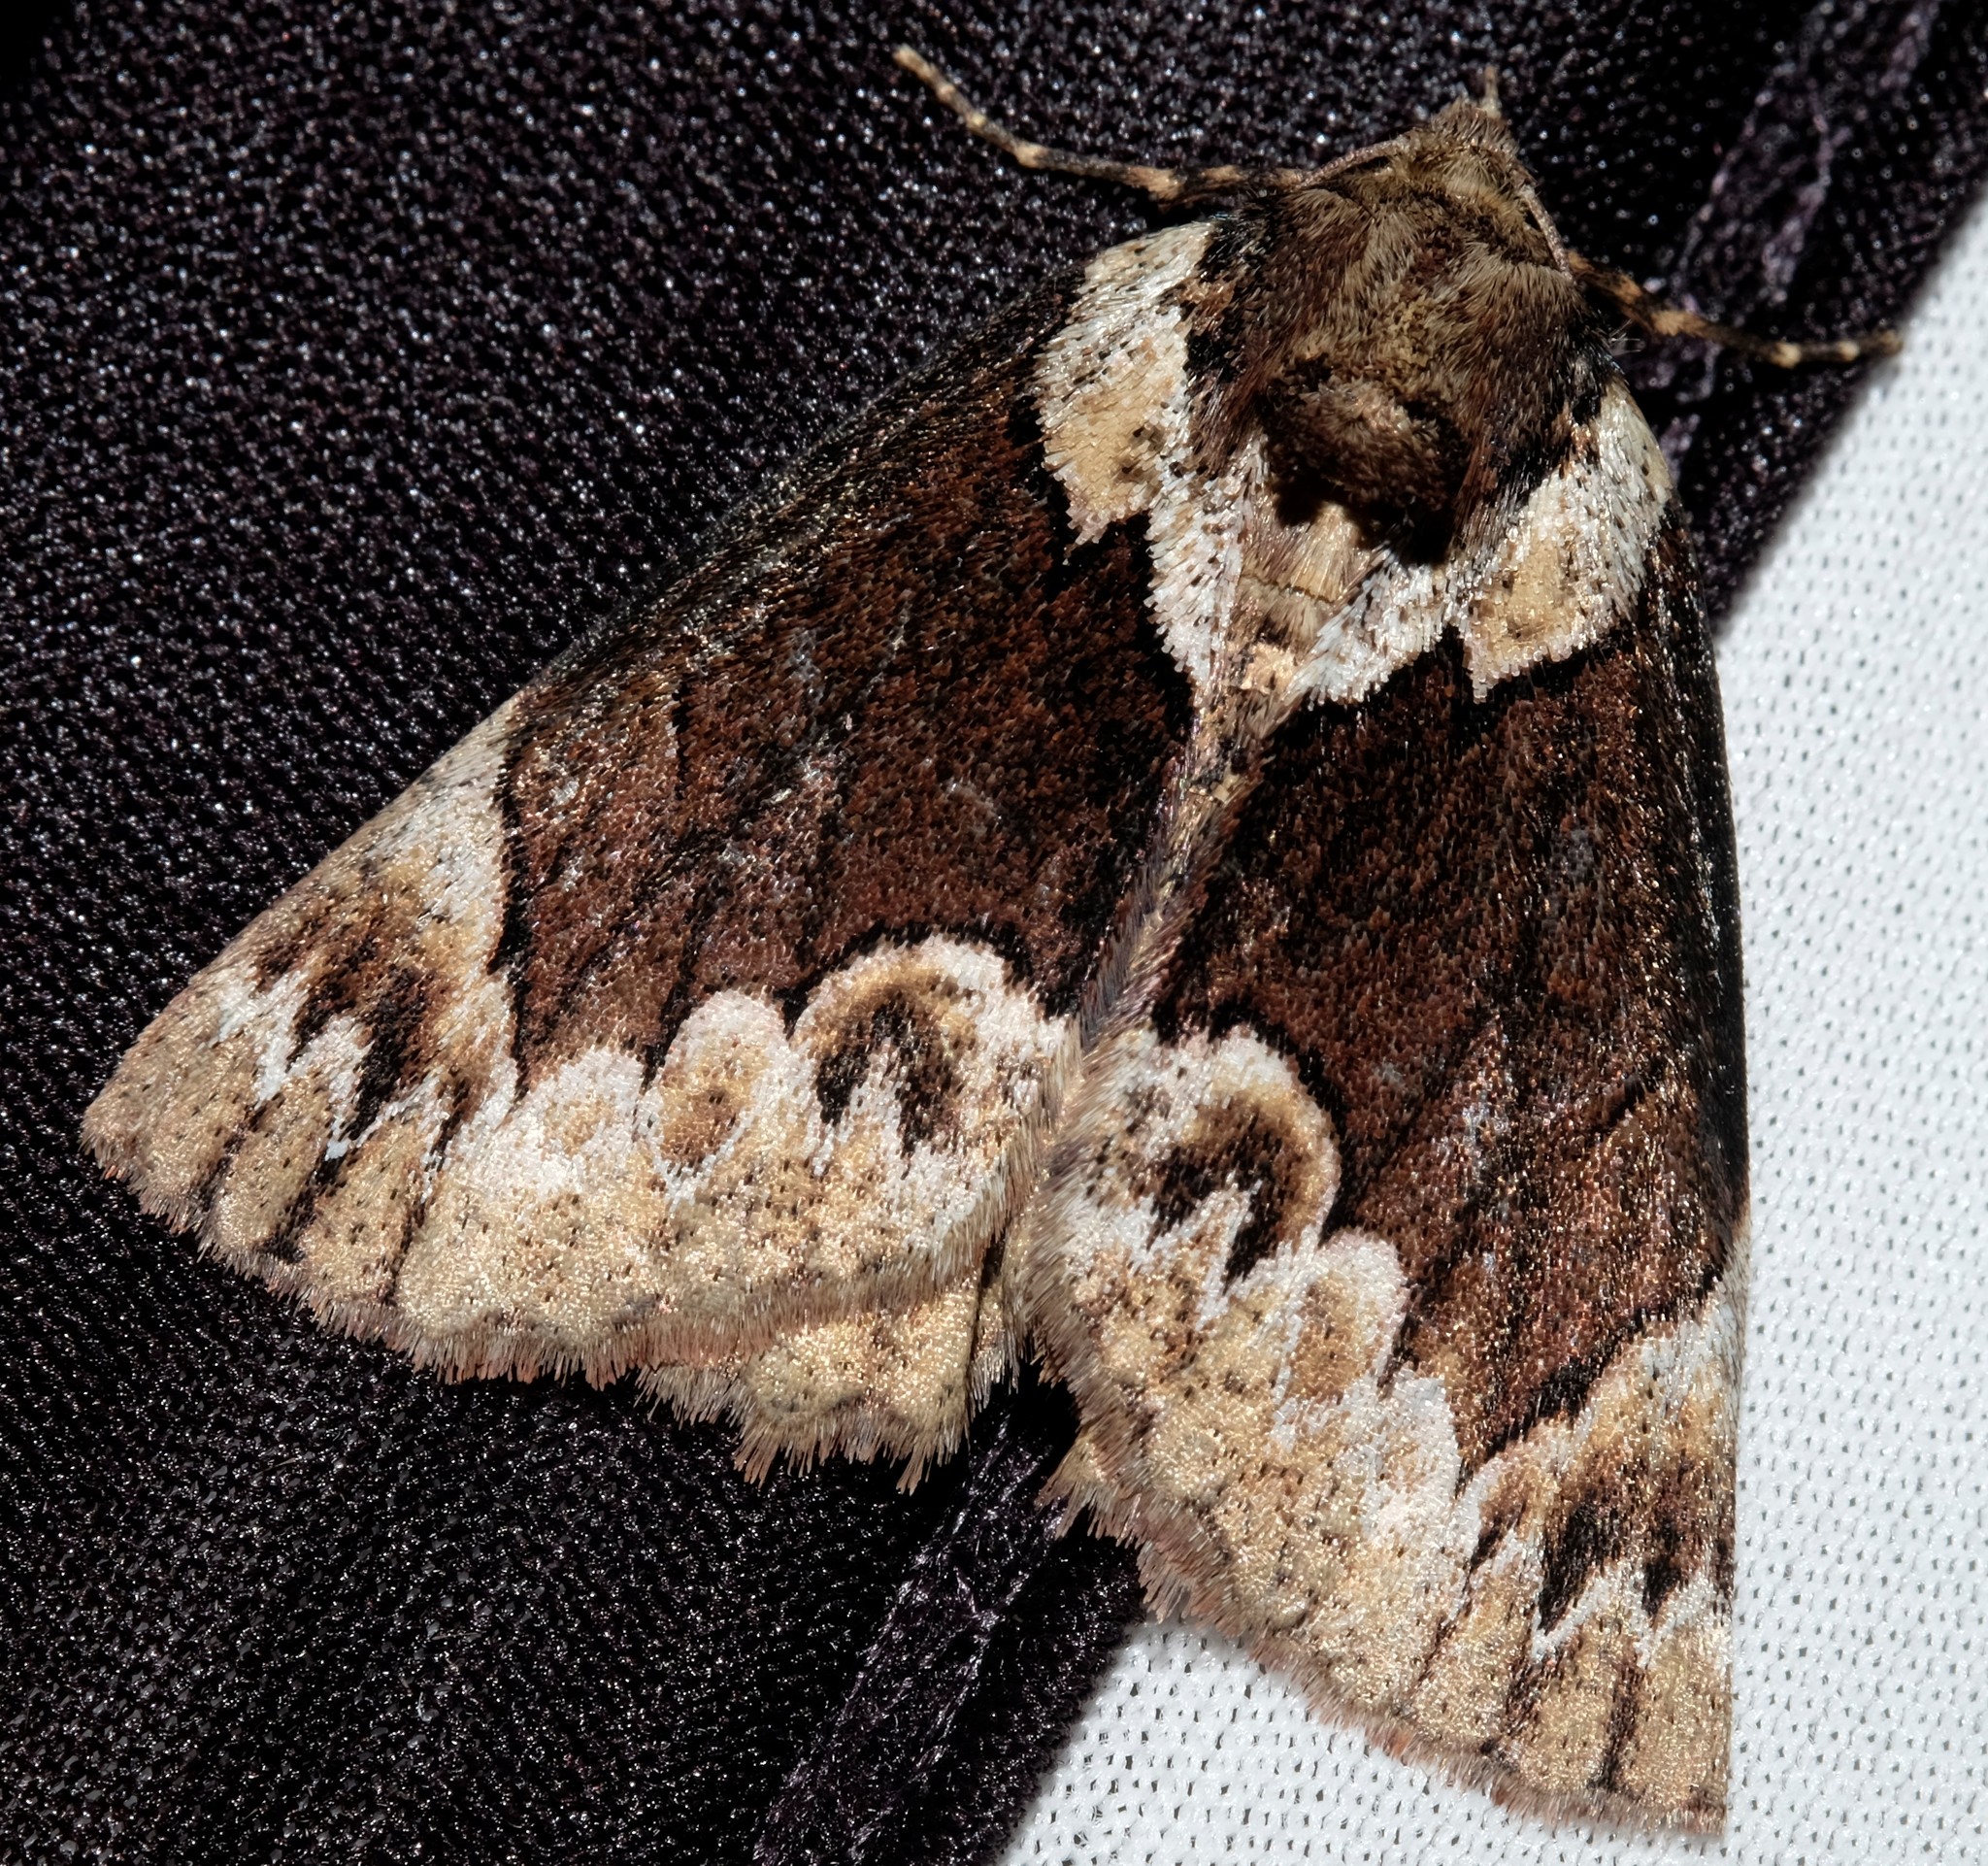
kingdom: Animalia
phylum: Arthropoda
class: Insecta
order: Lepidoptera
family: Geometridae
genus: Heliomystis
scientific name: Heliomystis electrica
